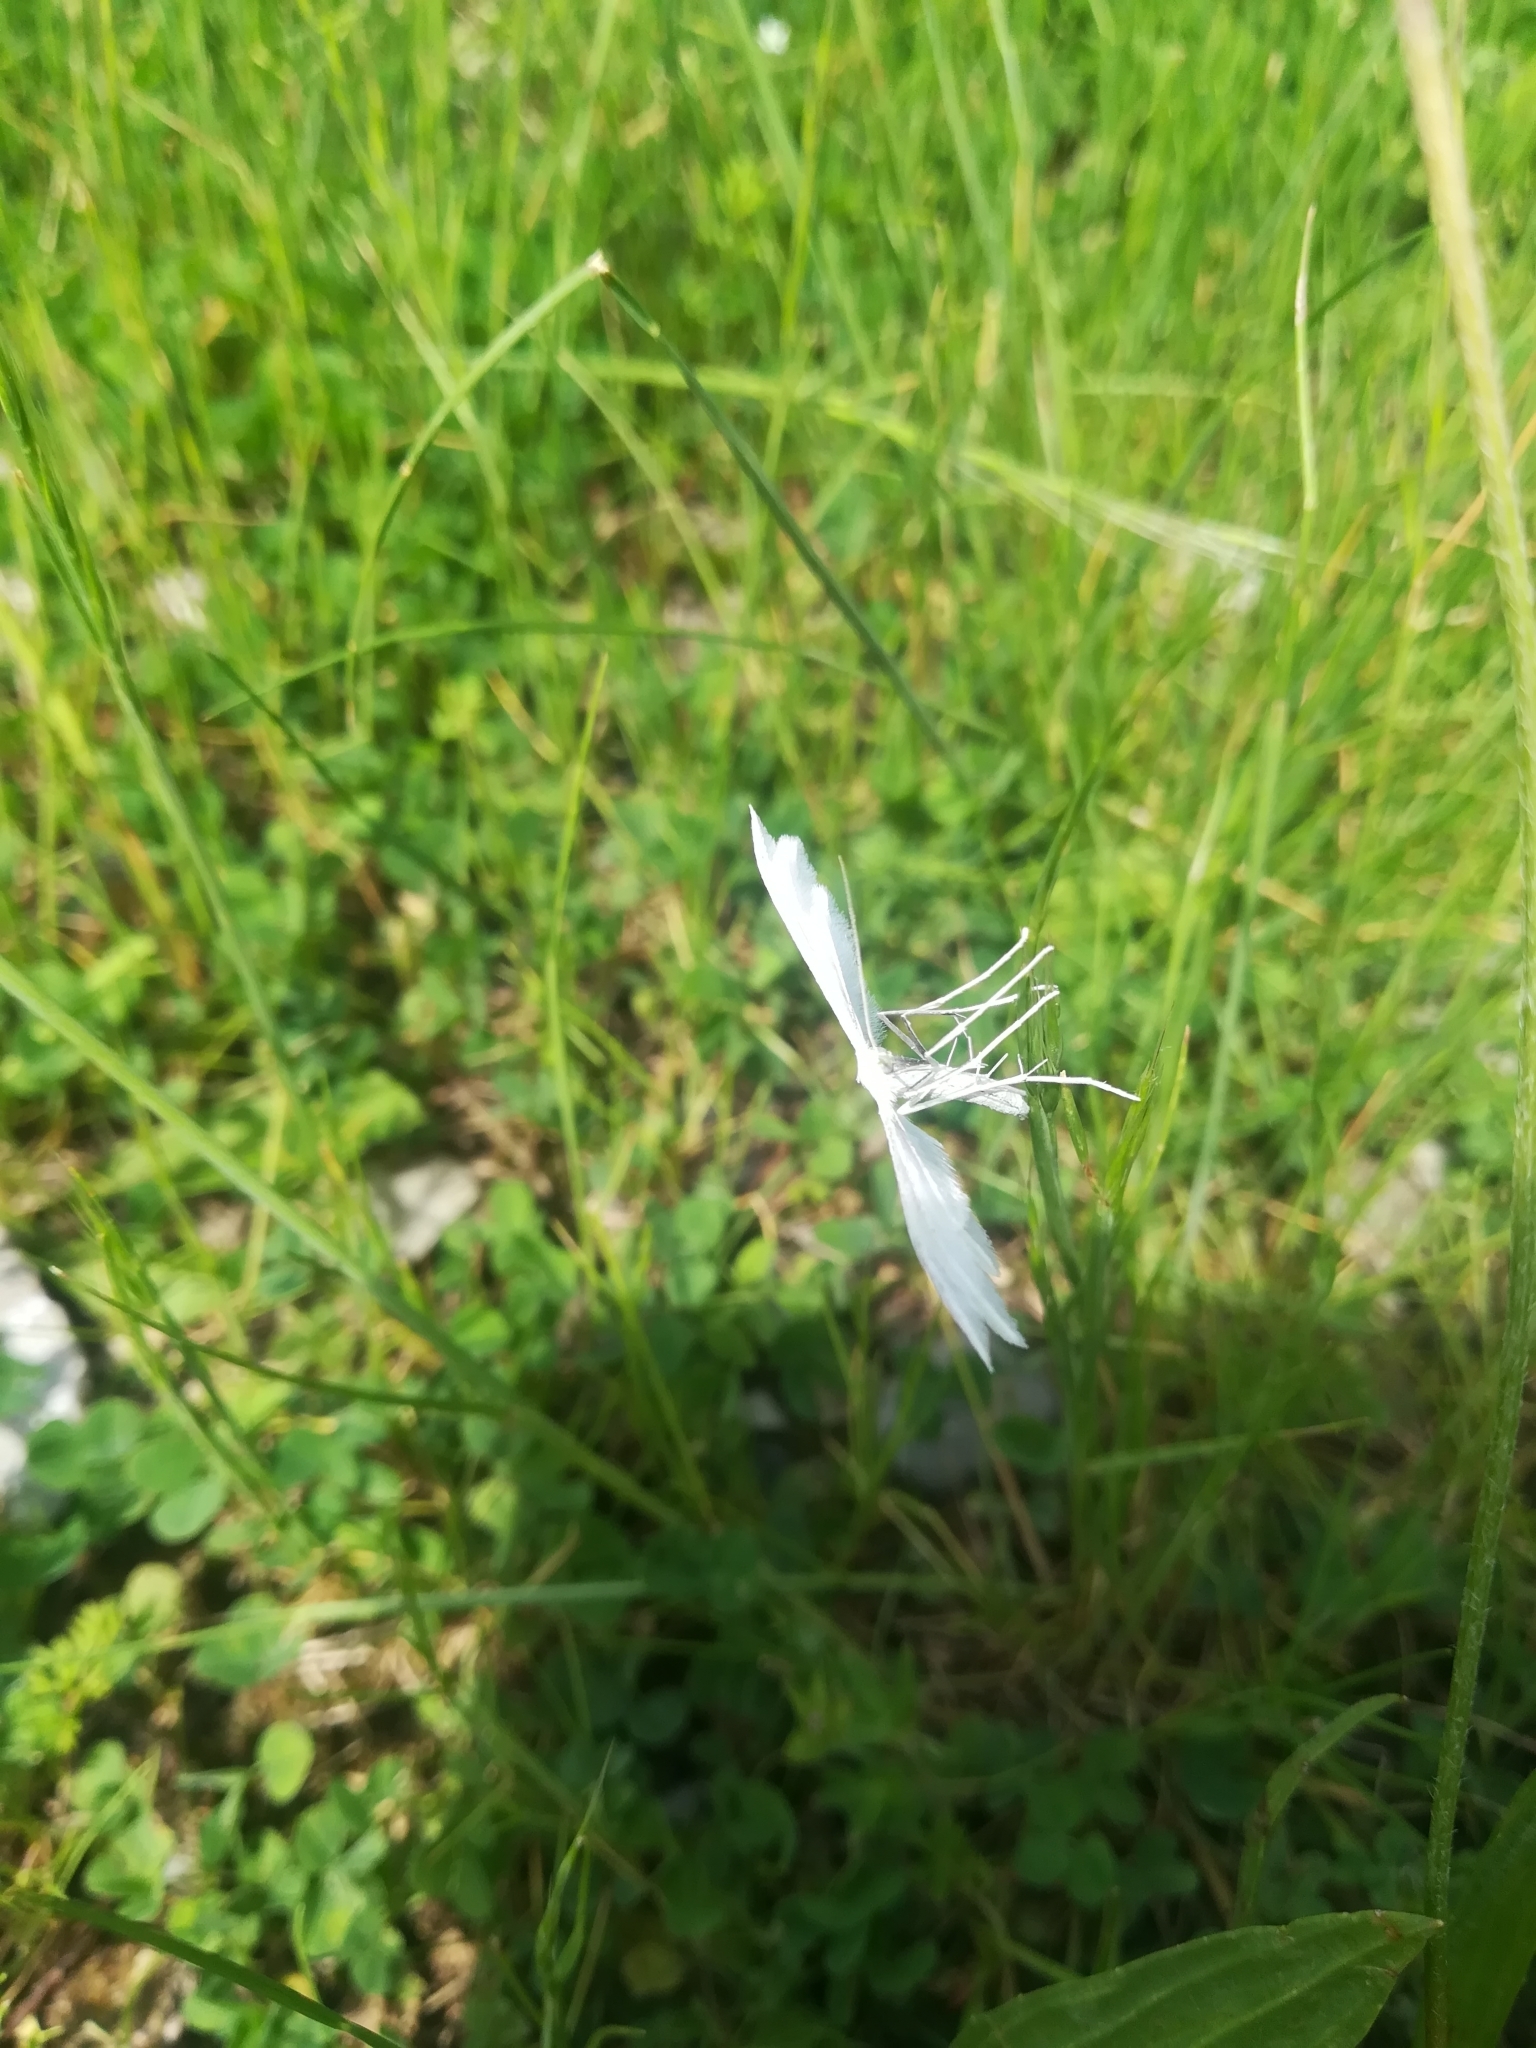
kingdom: Animalia
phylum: Arthropoda
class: Insecta
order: Lepidoptera
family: Pterophoridae
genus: Pterophorus
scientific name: Pterophorus pentadactyla
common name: White plume moth
